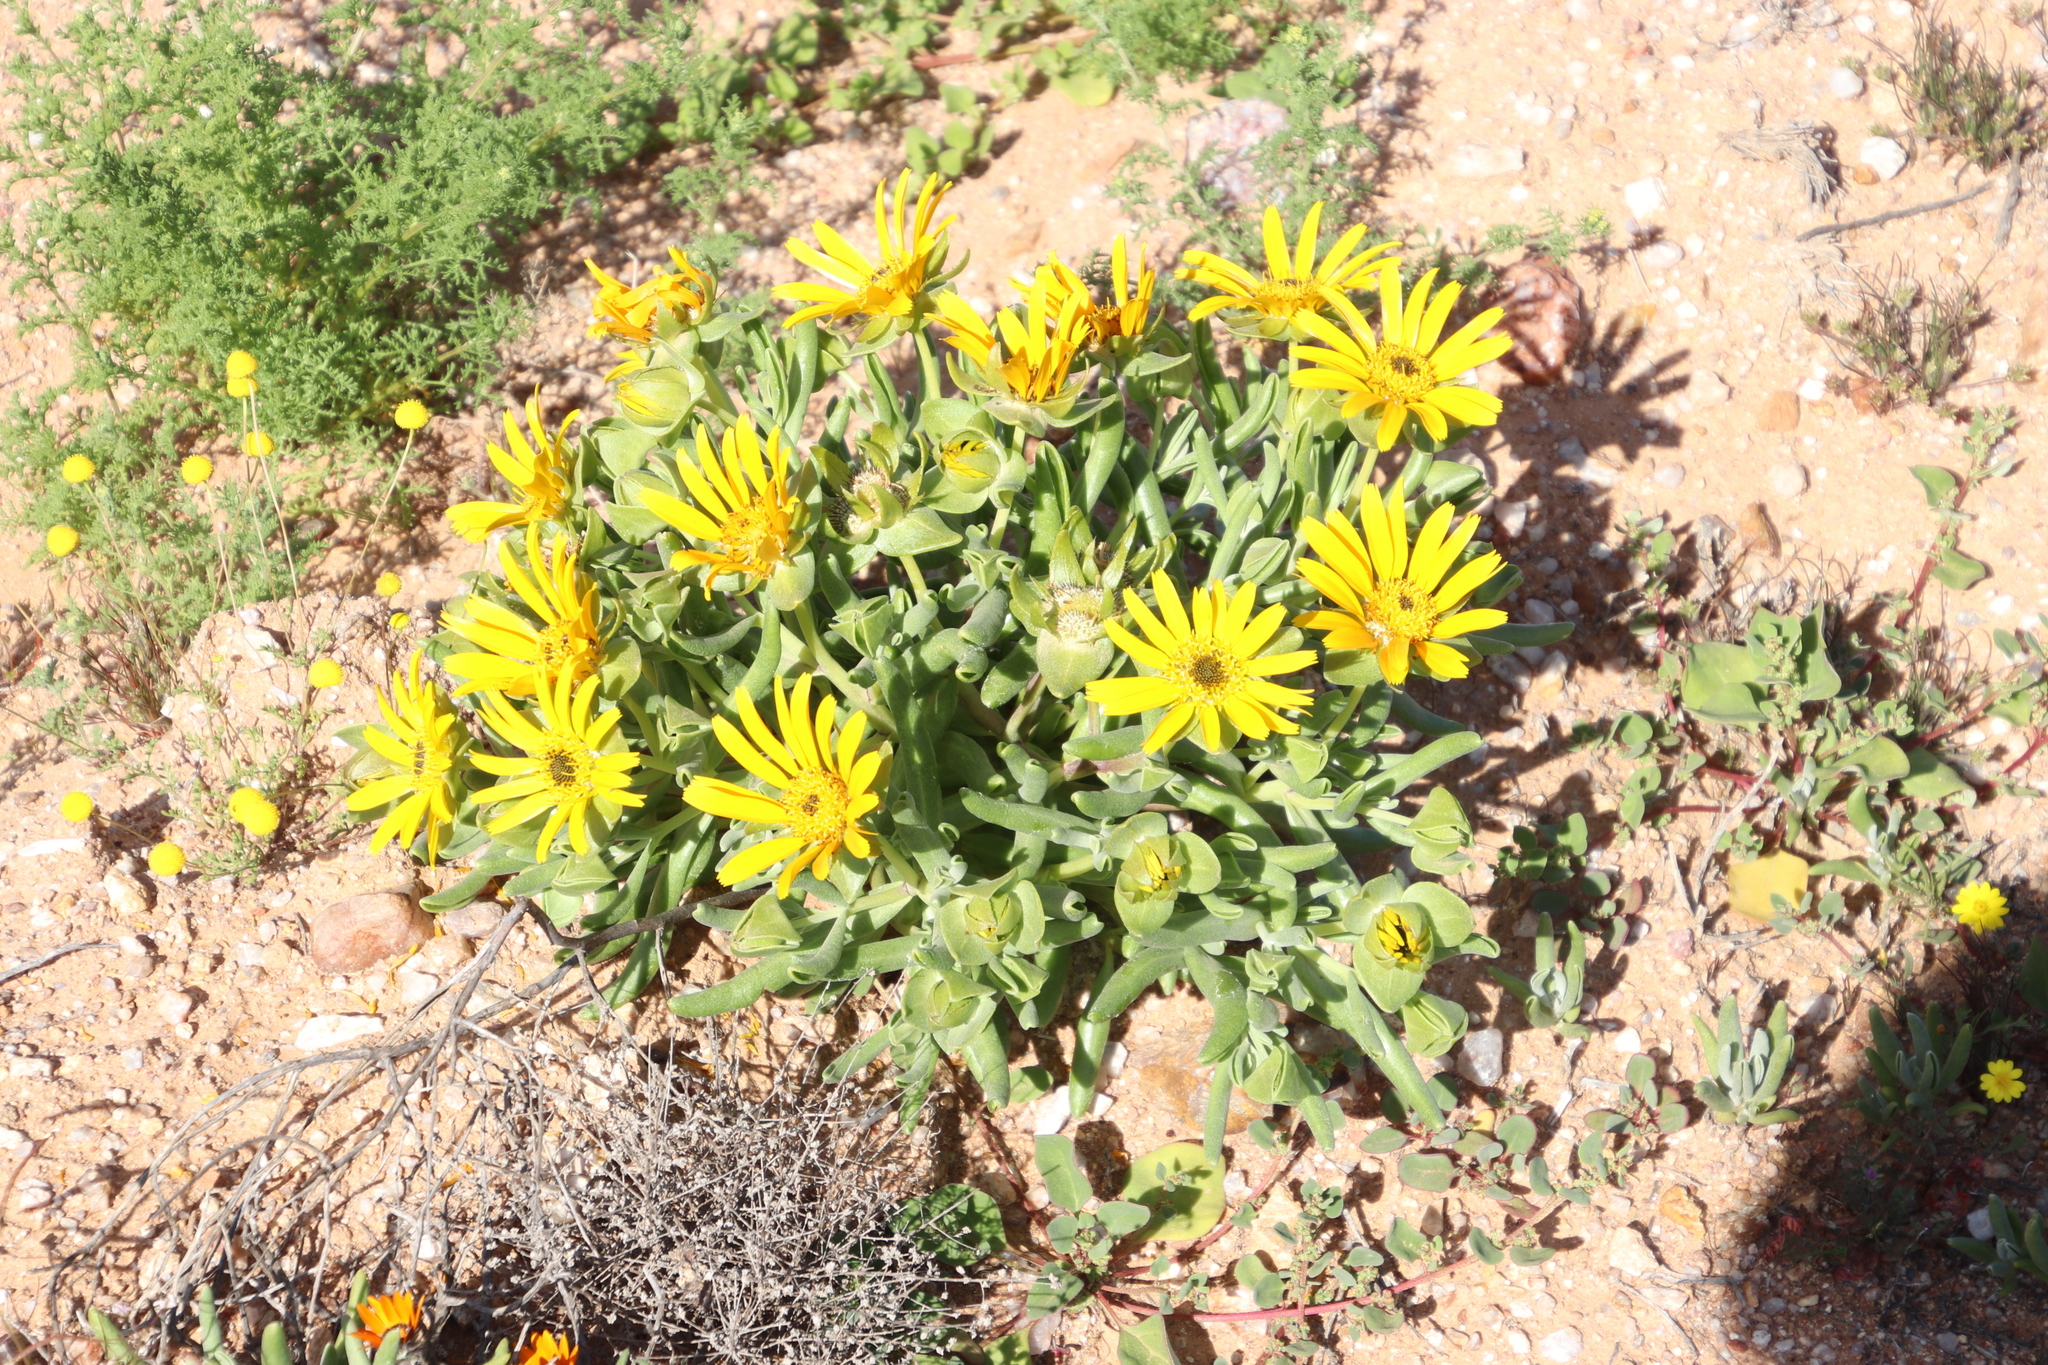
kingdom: Plantae
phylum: Tracheophyta
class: Magnoliopsida
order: Asterales
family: Asteraceae
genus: Didelta
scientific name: Didelta carnosa
